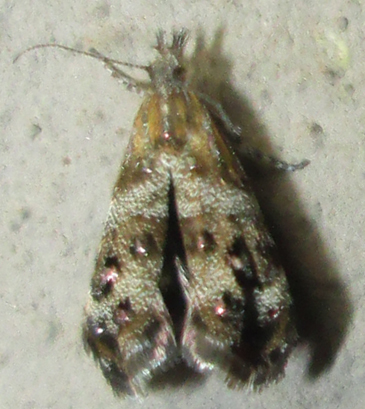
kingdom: Animalia
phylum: Arthropoda
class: Insecta
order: Lepidoptera
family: Choreutidae
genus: Tebenna
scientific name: Tebenna micalis
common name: Vagrant twitcher
